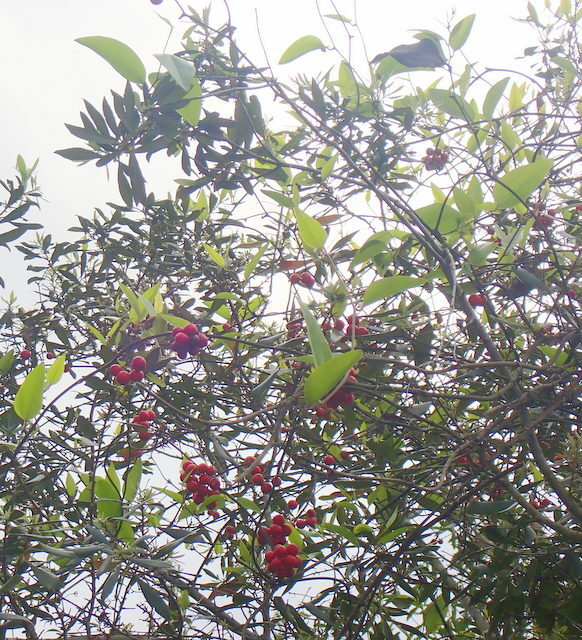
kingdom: Plantae
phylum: Tracheophyta
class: Liliopsida
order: Liliales
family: Smilacaceae
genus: Smilax
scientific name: Smilax walteri
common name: Coral greenbrier
